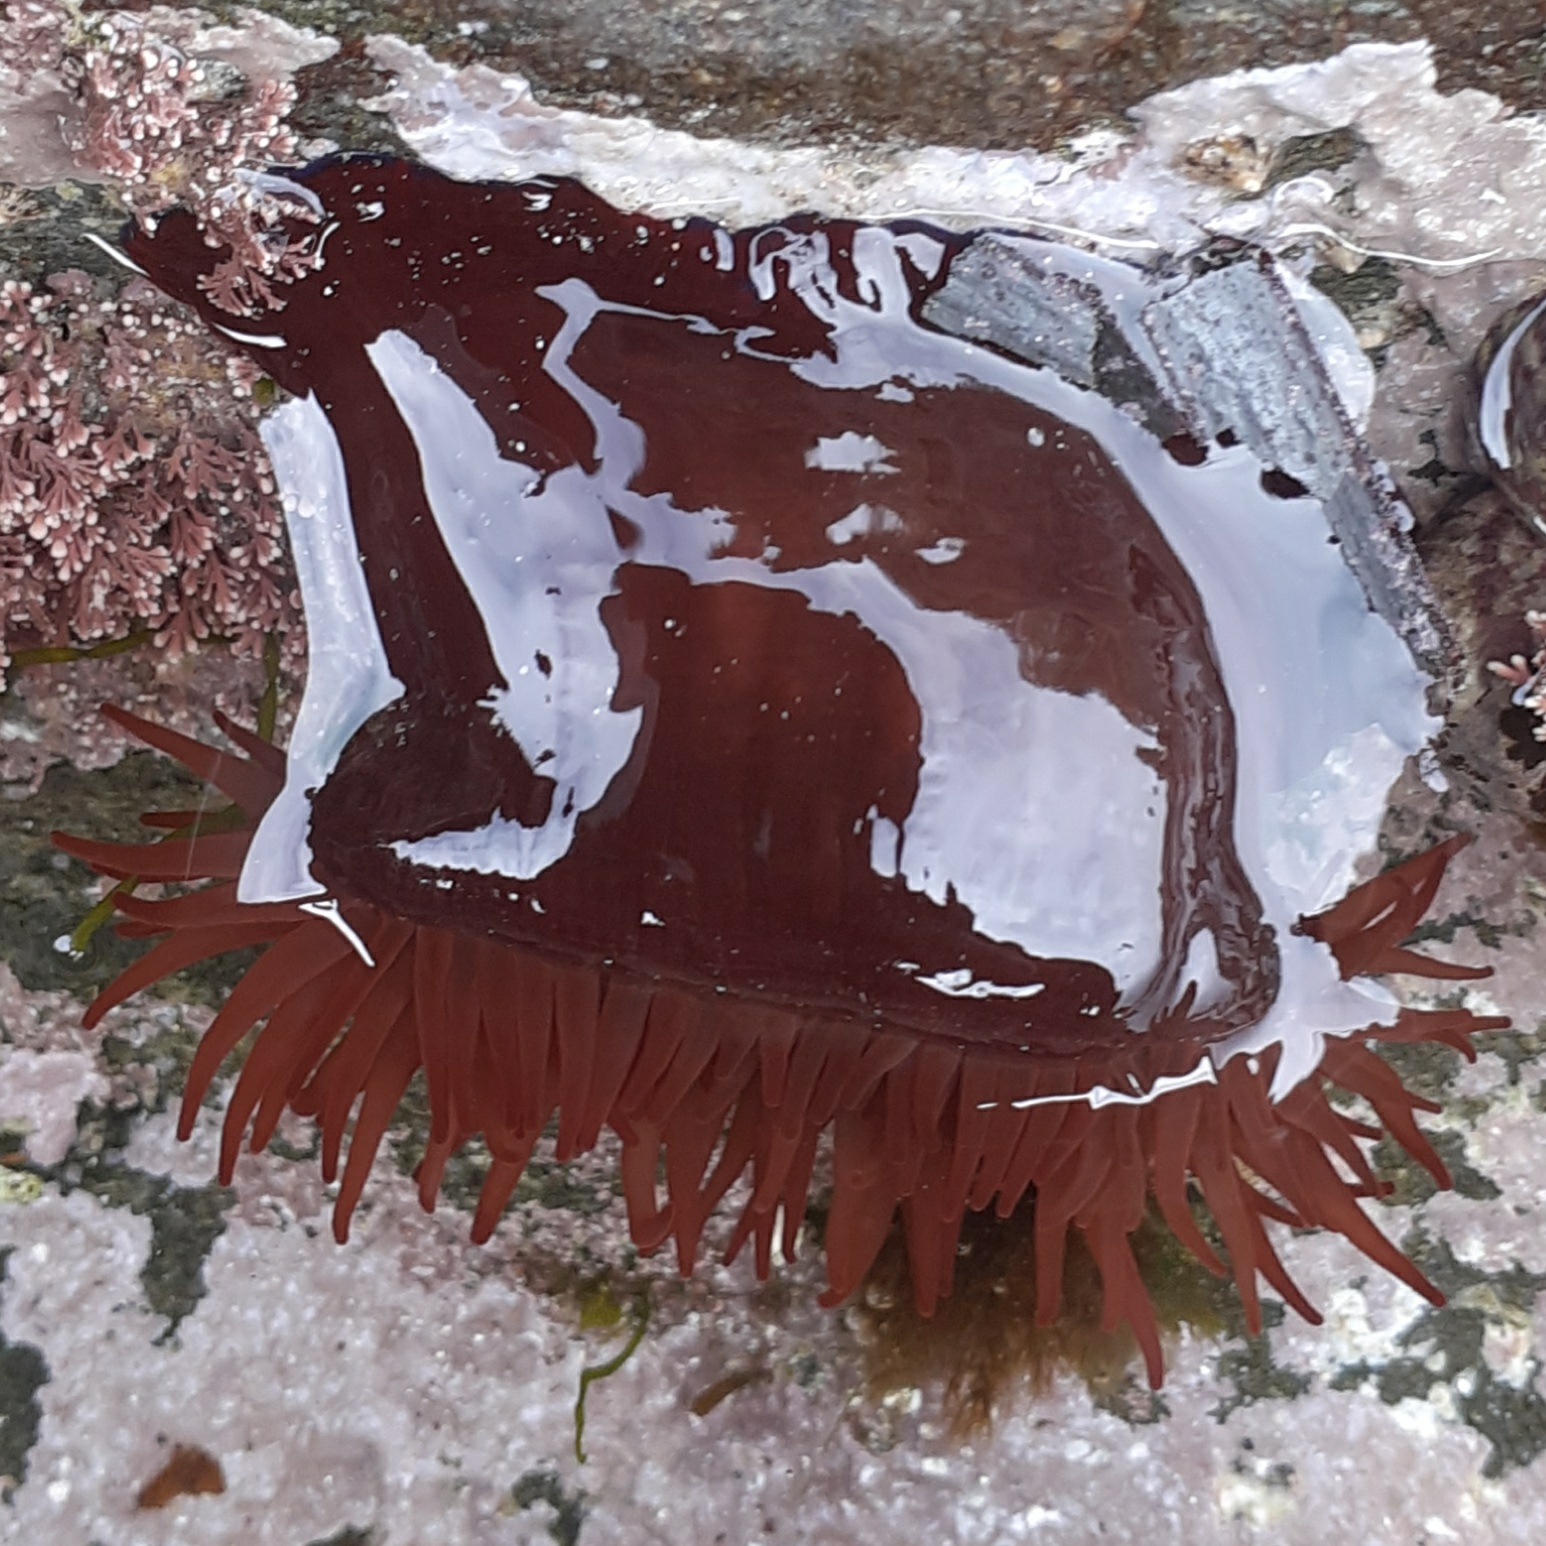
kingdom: Animalia
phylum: Cnidaria
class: Anthozoa
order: Actiniaria
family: Actiniidae
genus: Actinia
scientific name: Actinia equina
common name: Beadlet anemone
